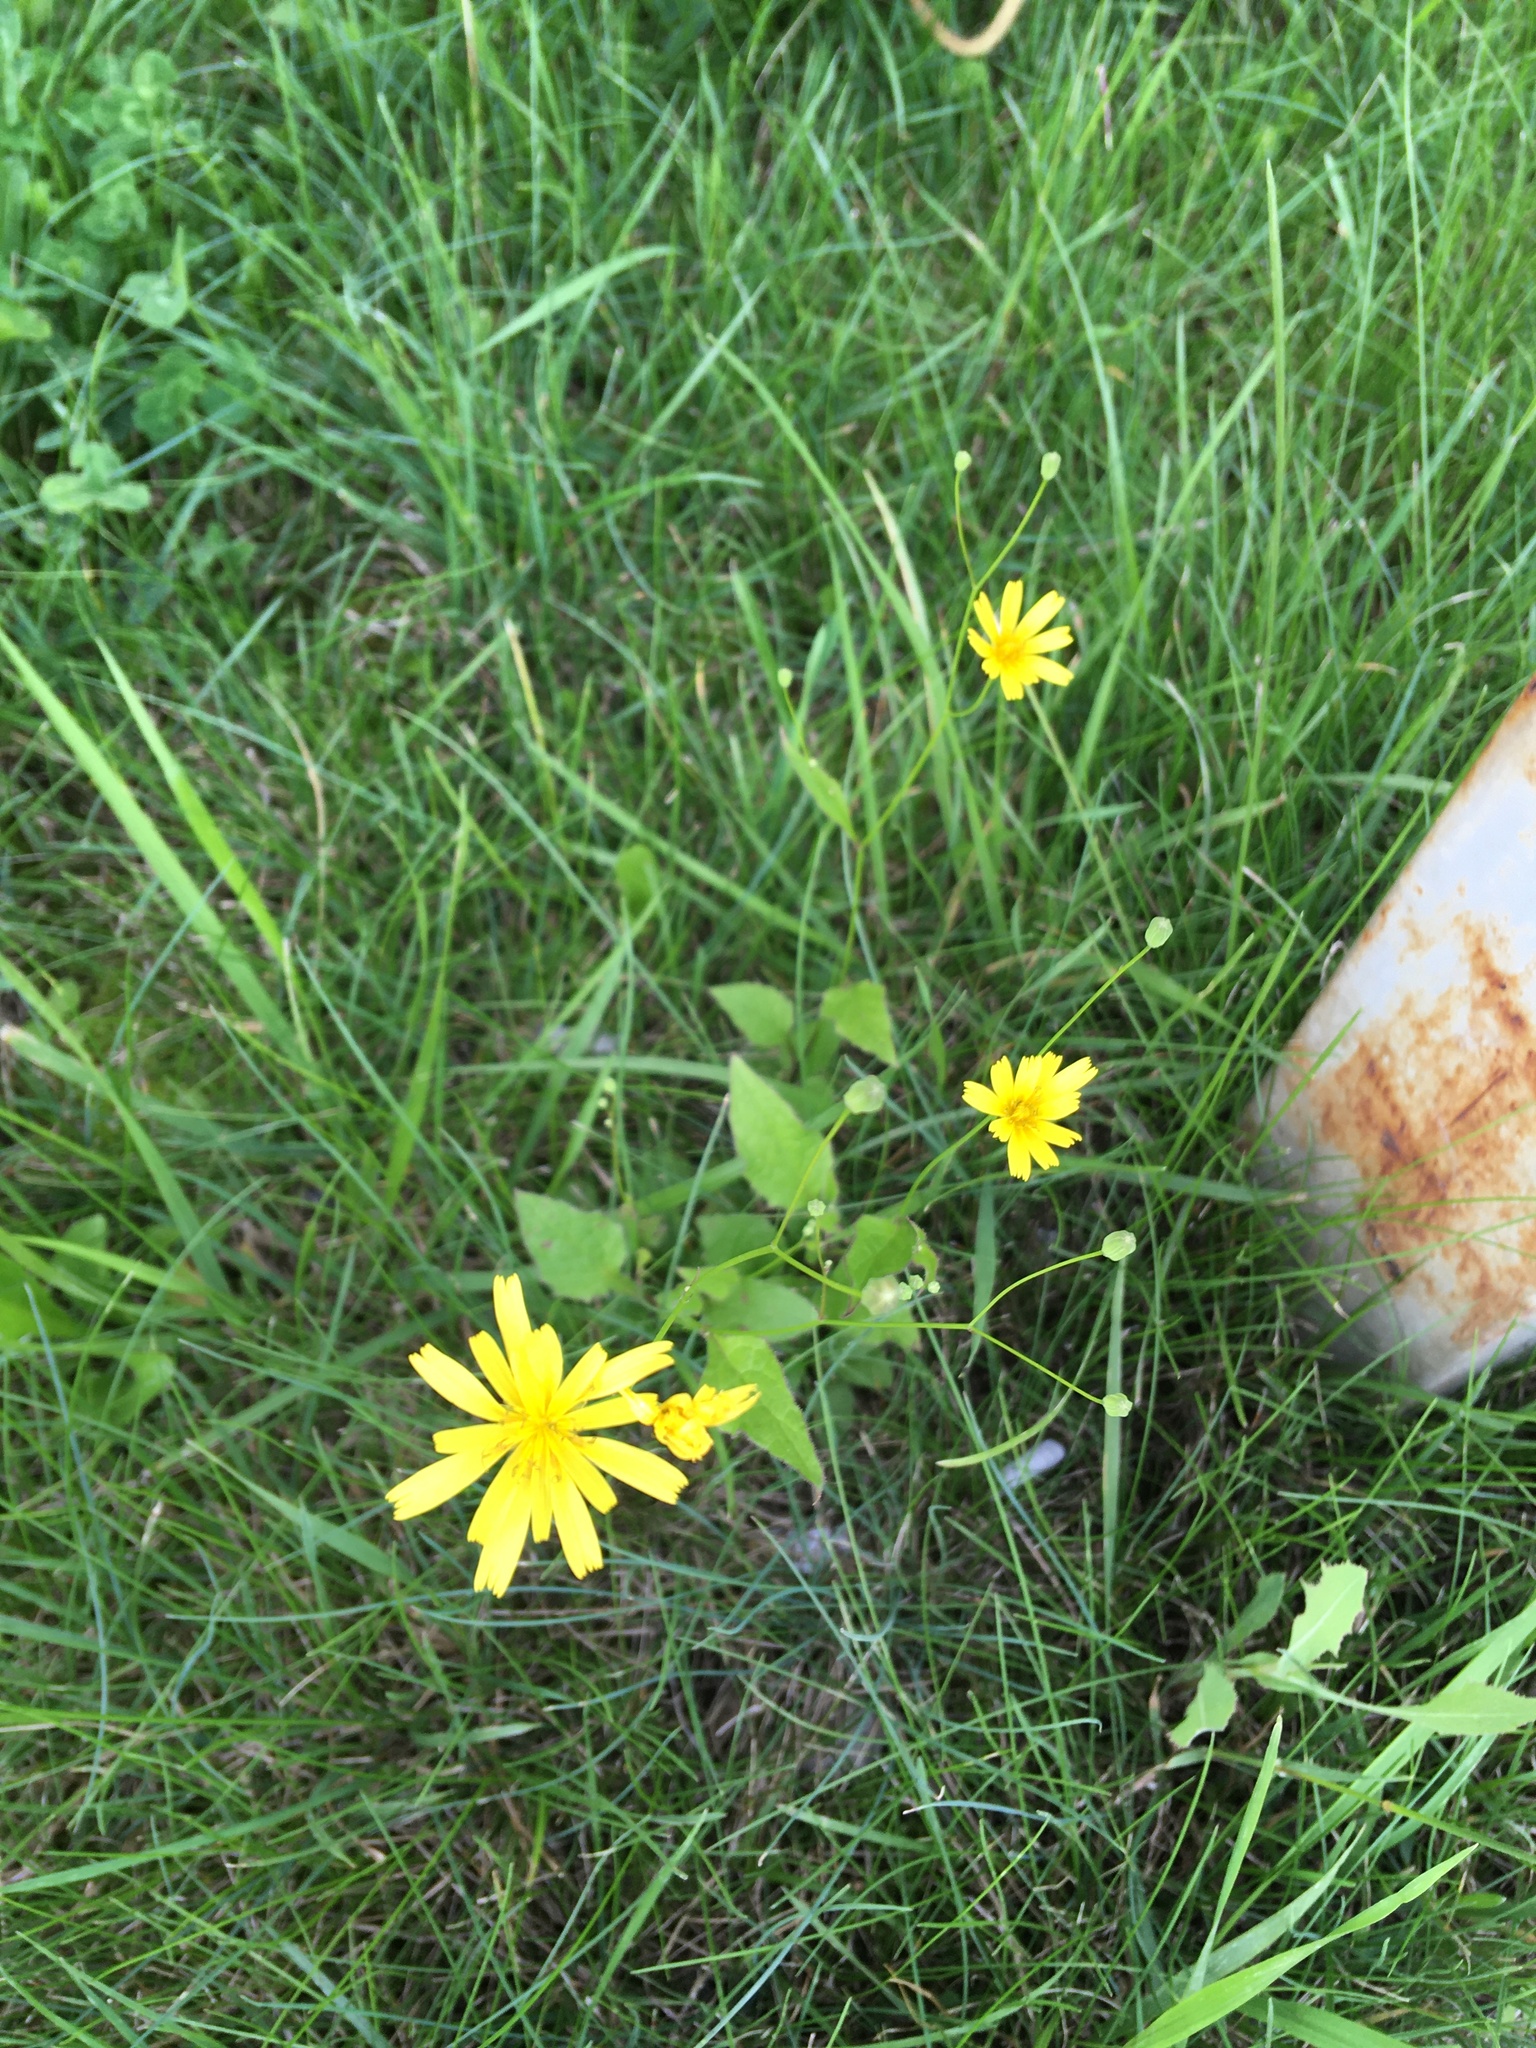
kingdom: Plantae
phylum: Tracheophyta
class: Magnoliopsida
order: Asterales
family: Asteraceae
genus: Lapsana
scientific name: Lapsana communis
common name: Nipplewort
